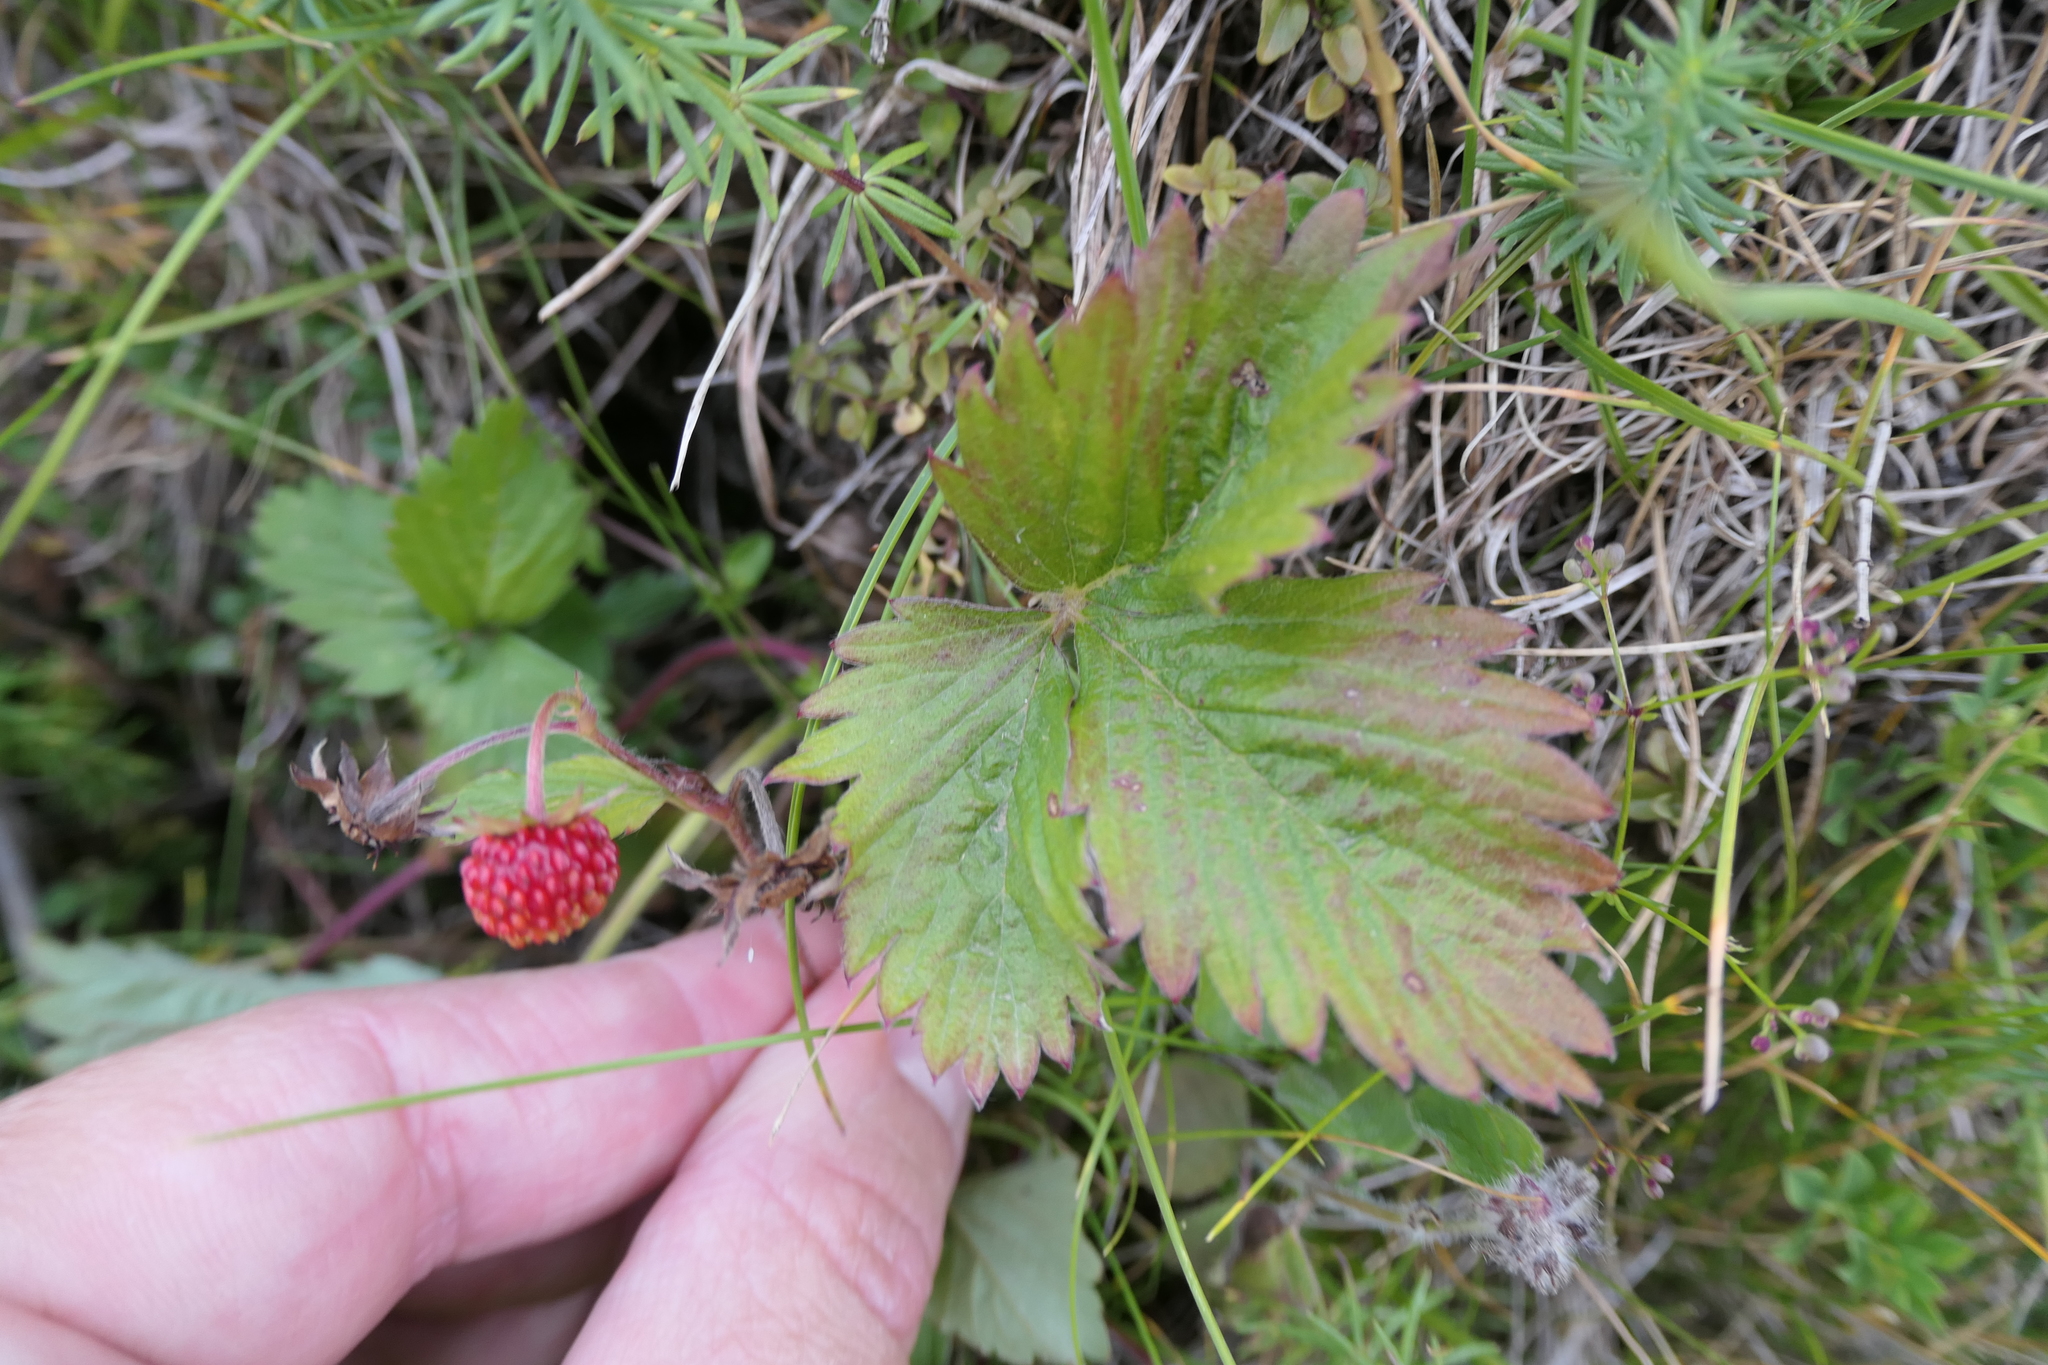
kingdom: Plantae
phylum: Tracheophyta
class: Magnoliopsida
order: Rosales
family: Rosaceae
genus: Fragaria
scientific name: Fragaria vesca
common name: Wild strawberry
